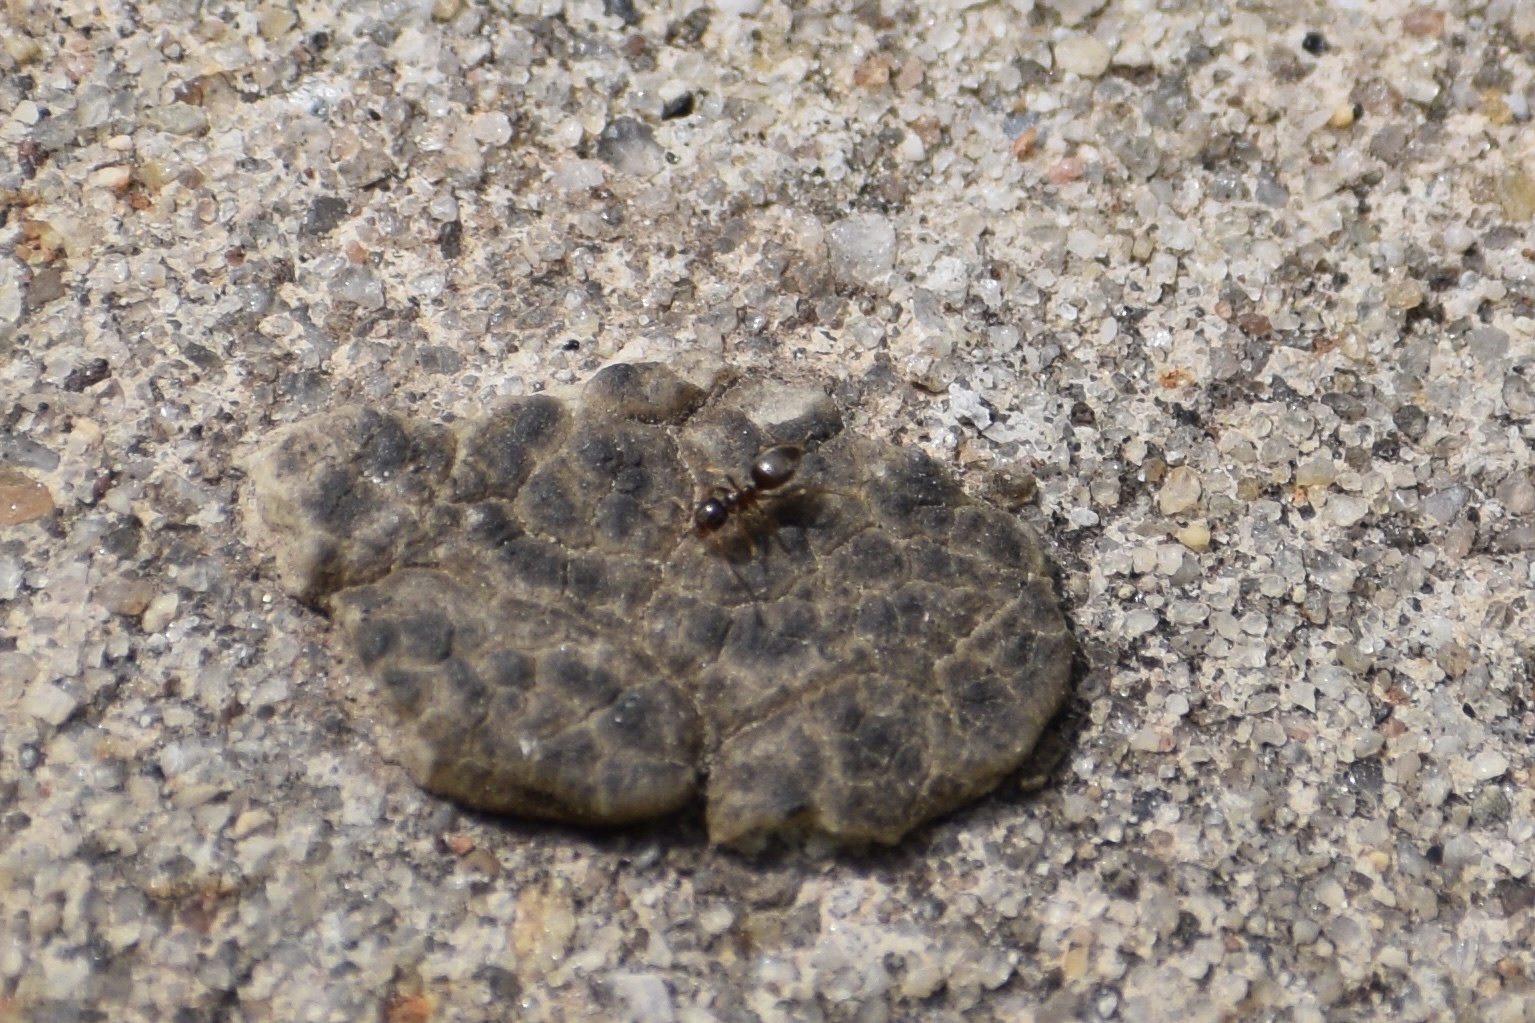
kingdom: Animalia
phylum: Arthropoda
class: Insecta
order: Hymenoptera
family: Formicidae
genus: Lasius
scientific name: Lasius
